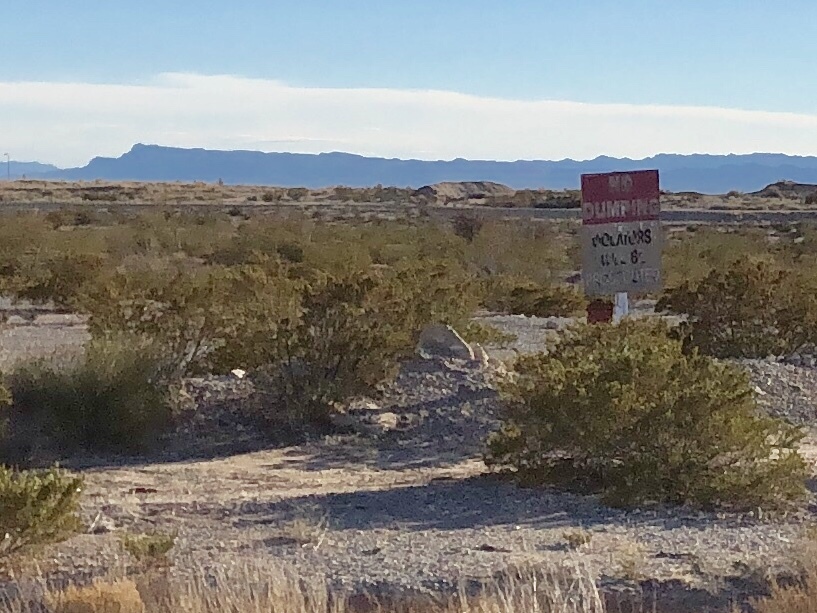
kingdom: Plantae
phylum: Tracheophyta
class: Magnoliopsida
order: Zygophyllales
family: Zygophyllaceae
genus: Larrea
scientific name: Larrea tridentata
